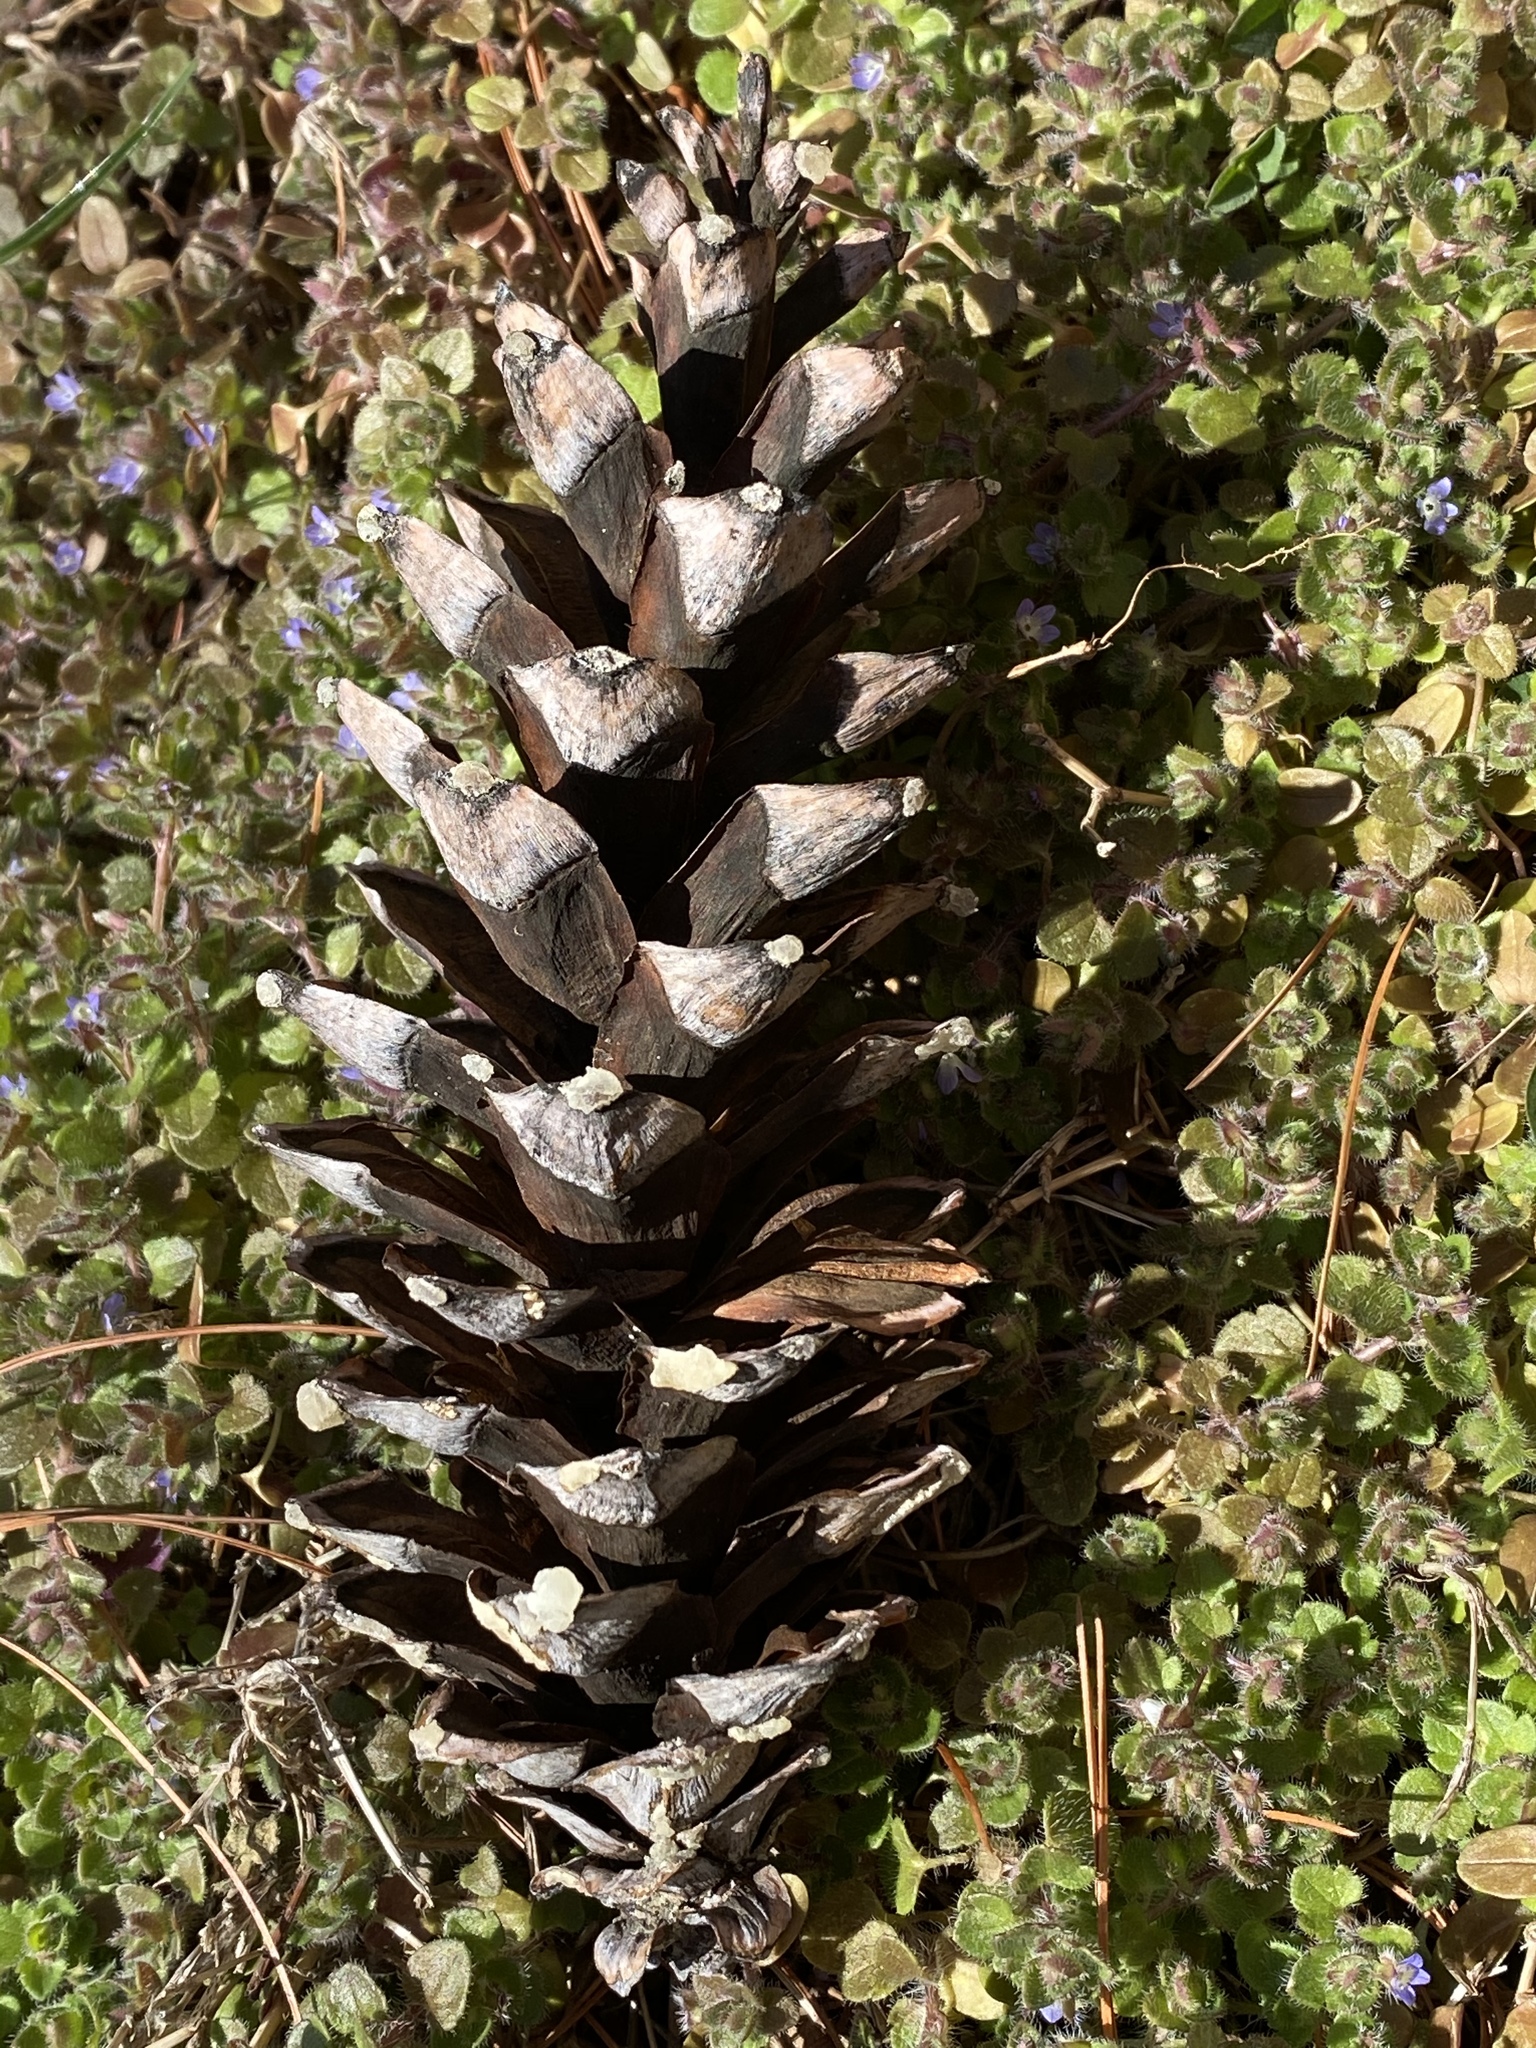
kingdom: Plantae
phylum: Tracheophyta
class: Pinopsida
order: Pinales
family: Pinaceae
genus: Pinus
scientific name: Pinus strobus
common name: Weymouth pine
